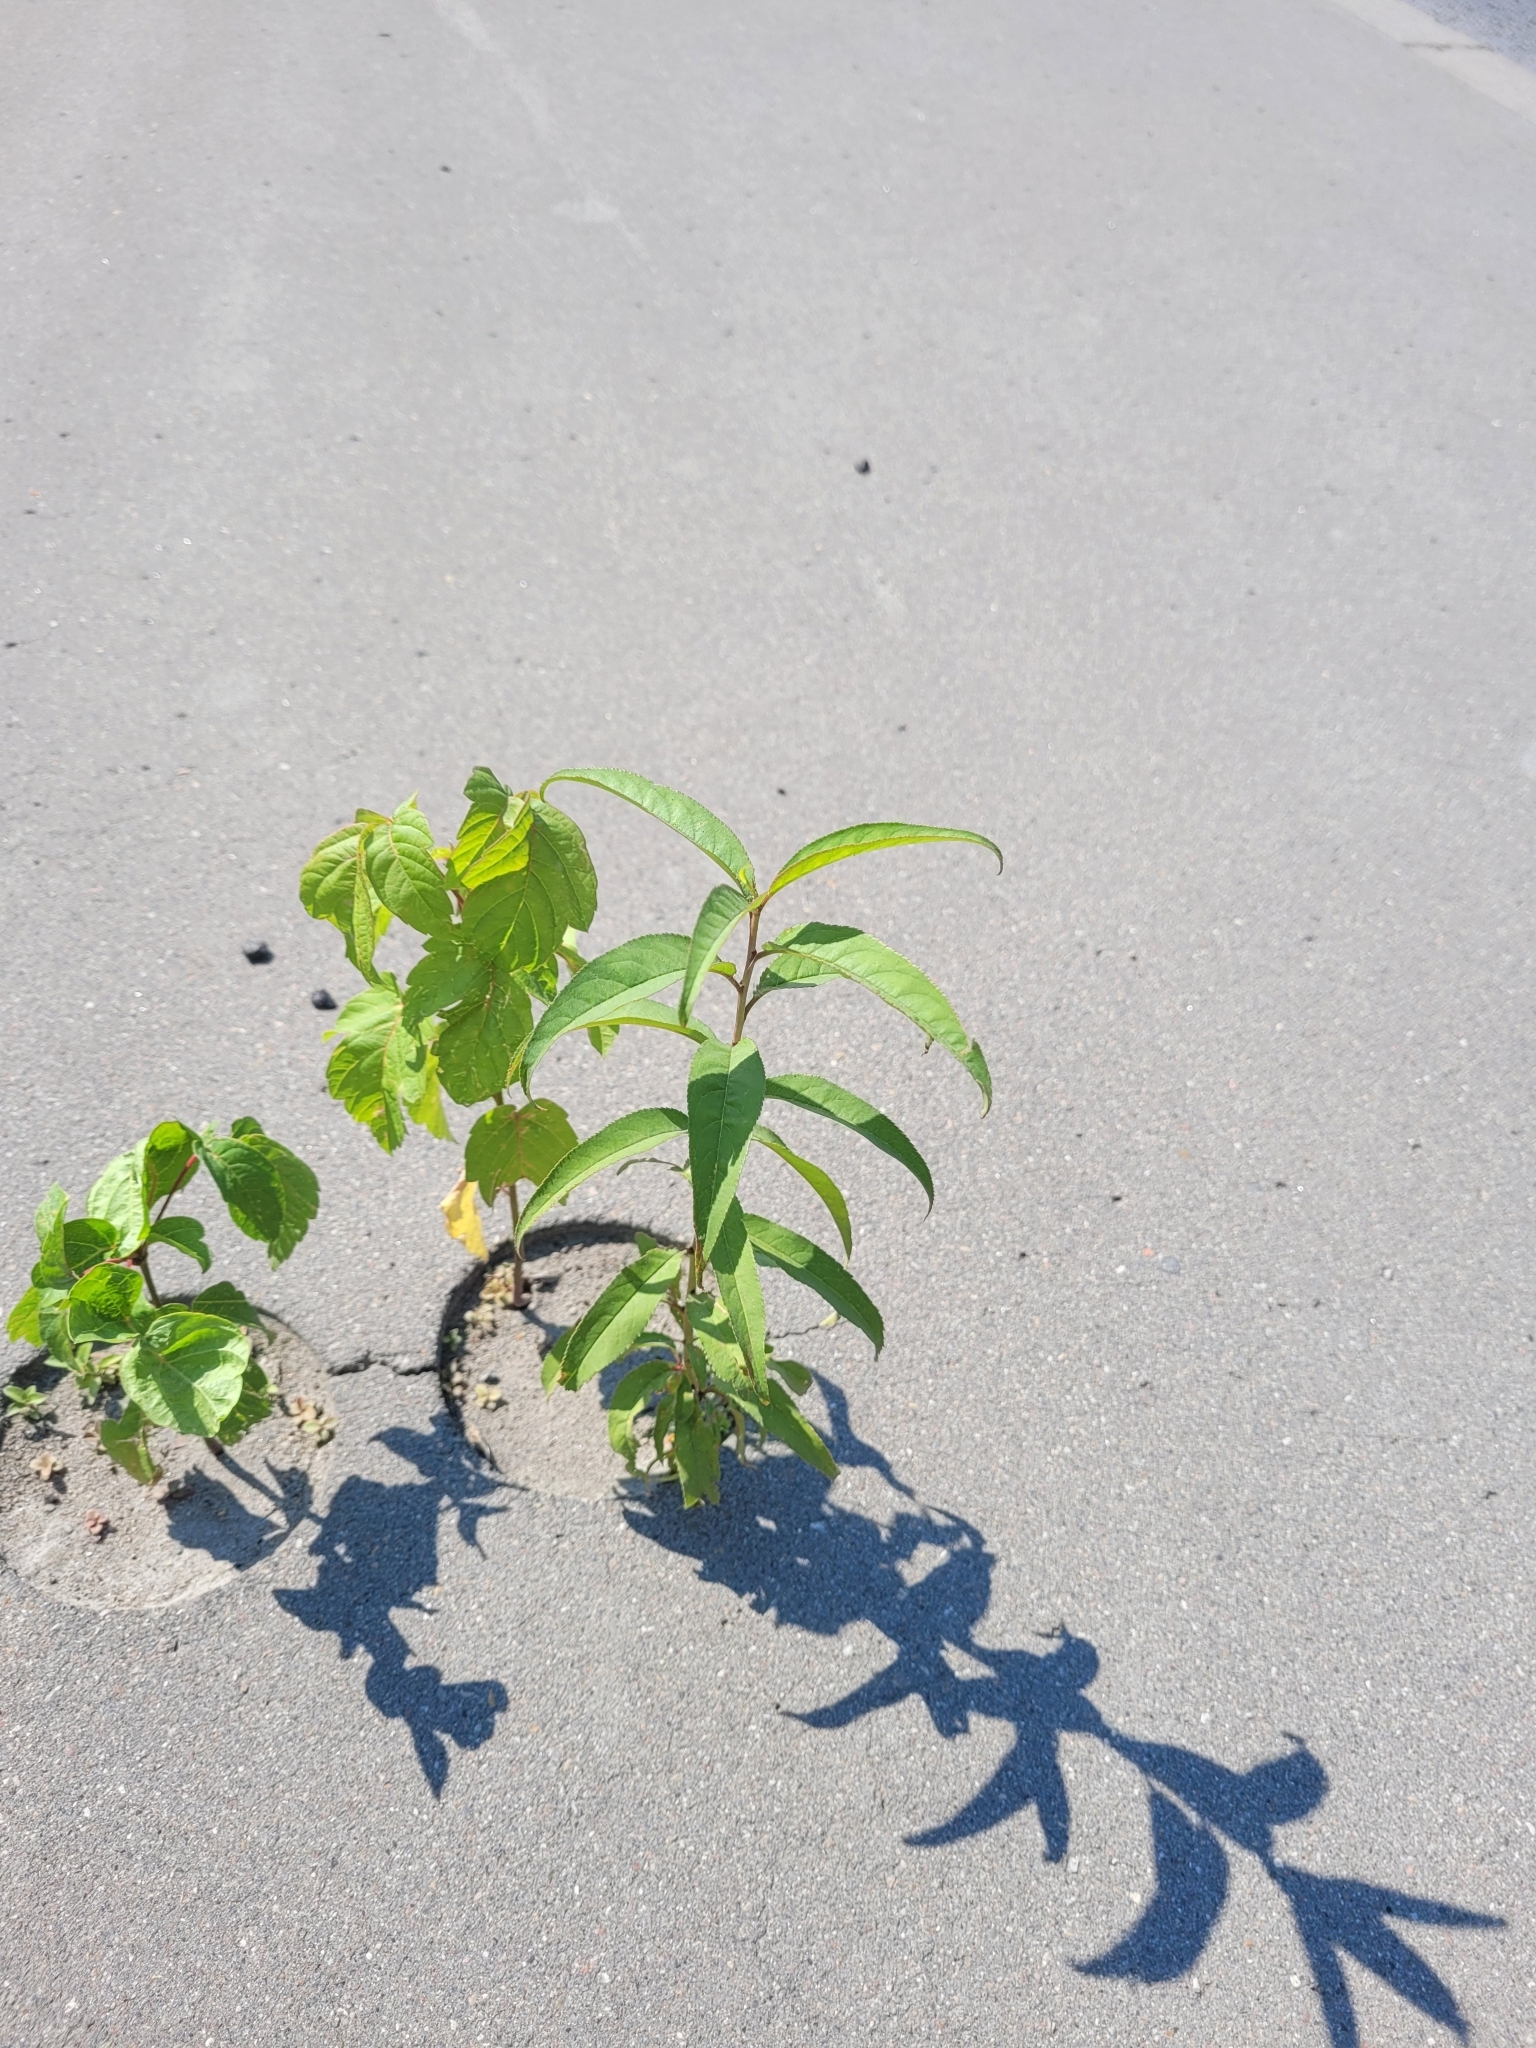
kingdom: Plantae
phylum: Tracheophyta
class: Magnoliopsida
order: Rosales
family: Rosaceae
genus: Prunus
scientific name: Prunus persica
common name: Peach
